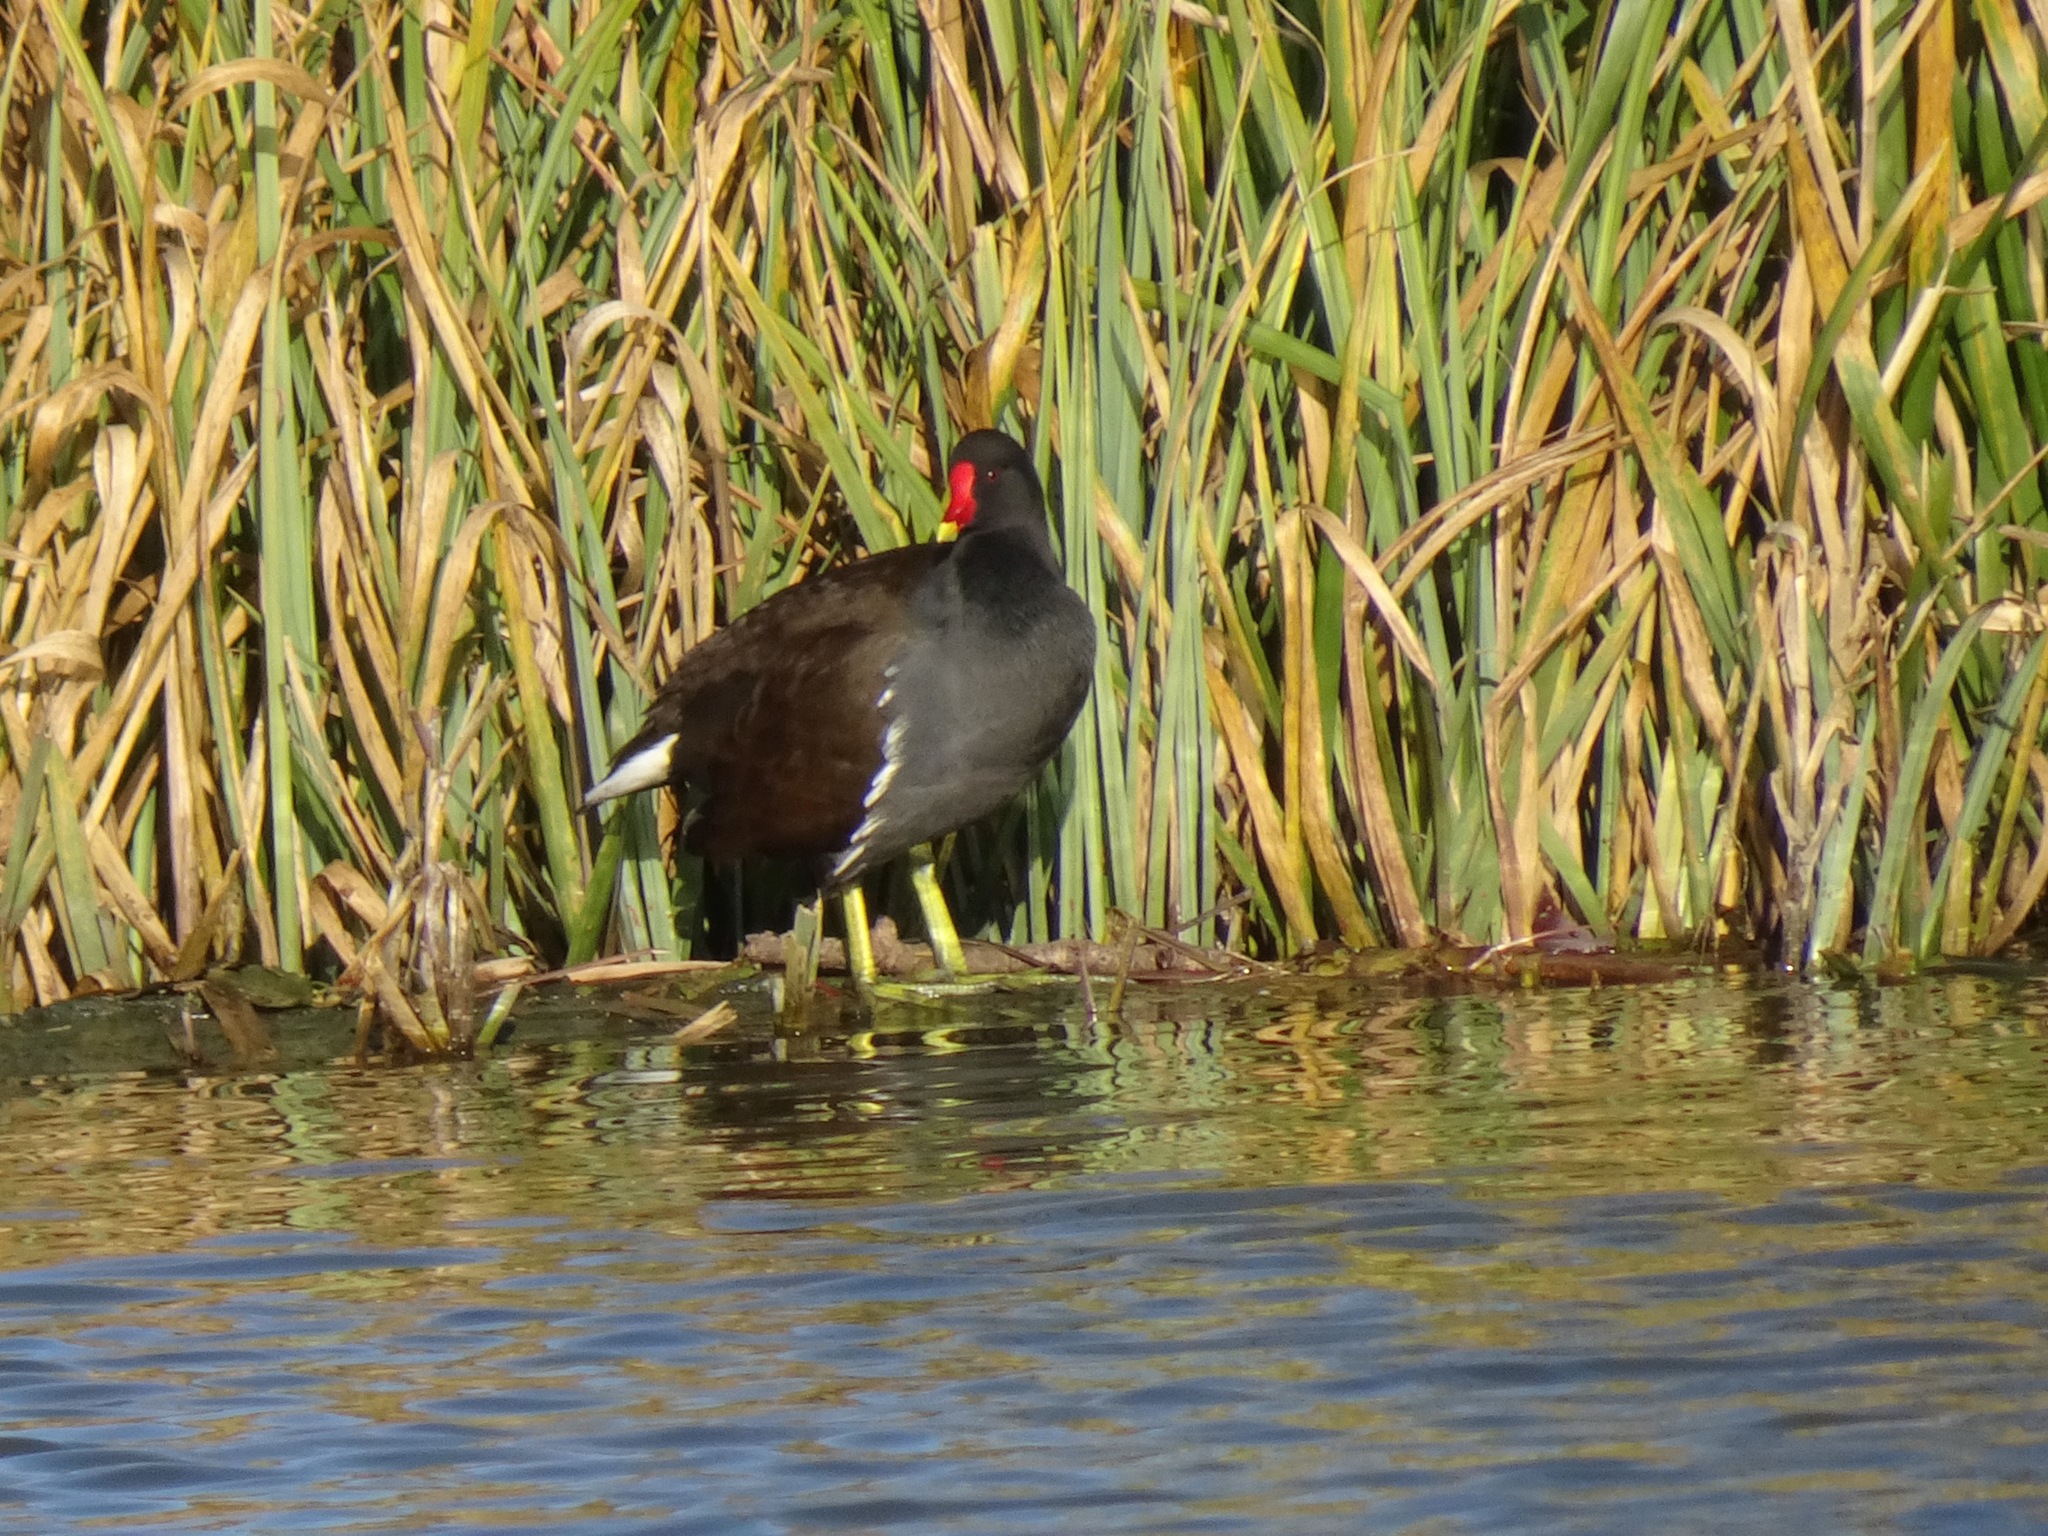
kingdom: Animalia
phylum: Chordata
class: Aves
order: Gruiformes
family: Rallidae
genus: Gallinula
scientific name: Gallinula chloropus
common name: Common moorhen
